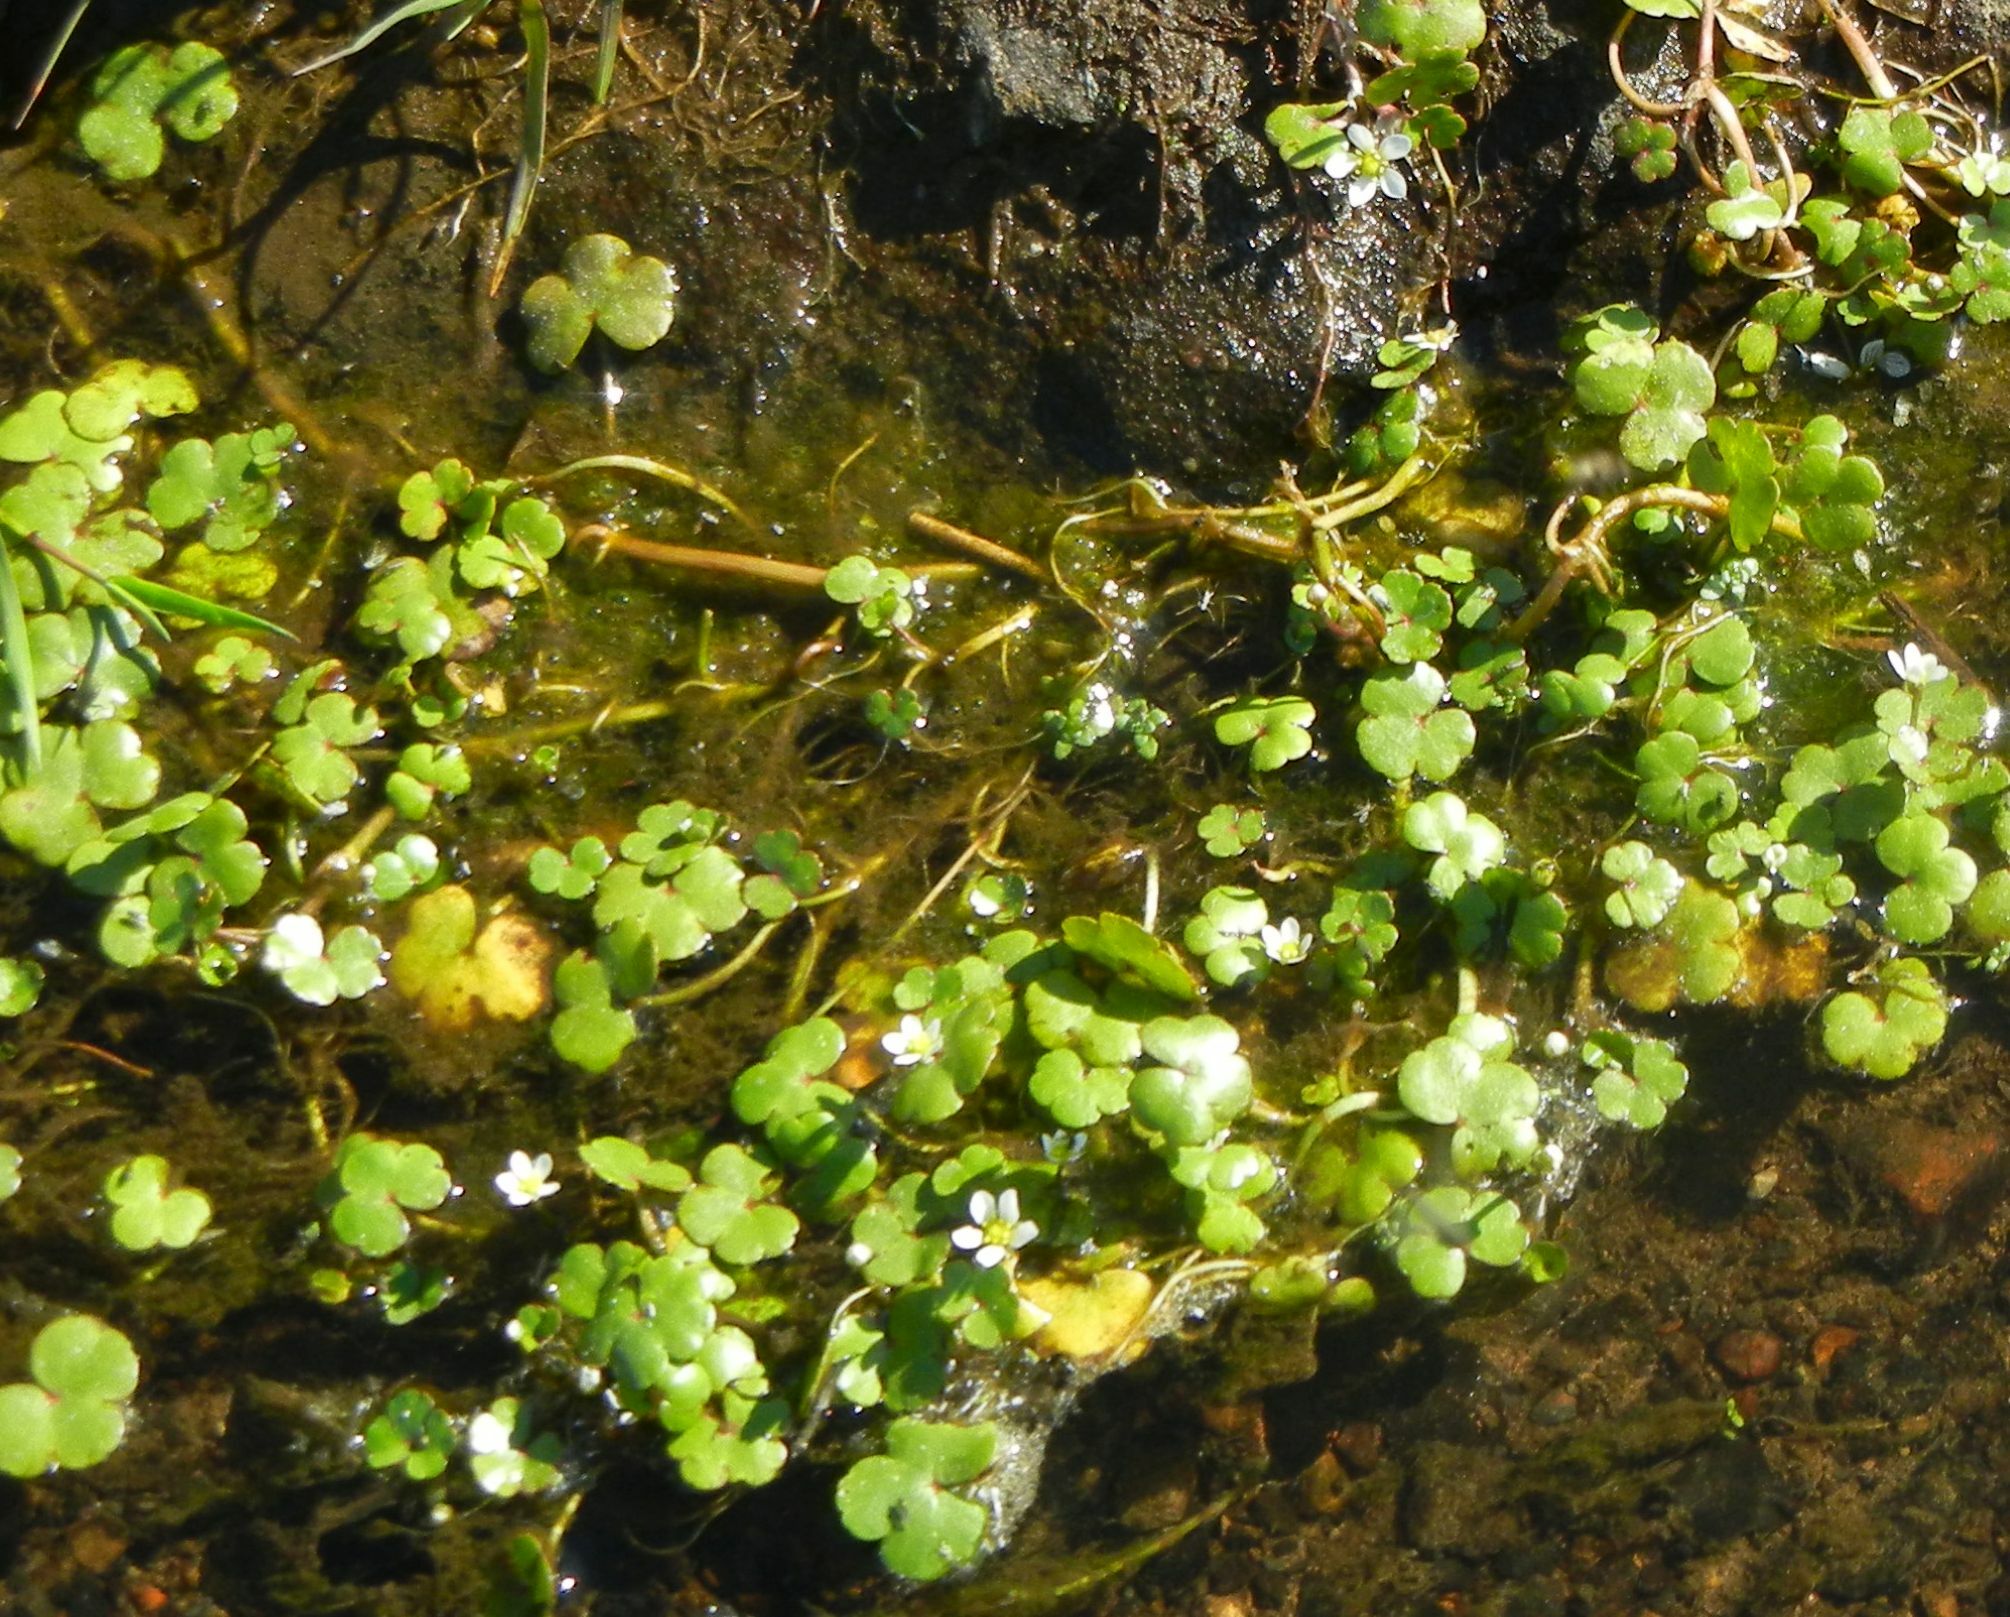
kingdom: Plantae
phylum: Tracheophyta
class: Magnoliopsida
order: Ranunculales
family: Ranunculaceae
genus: Ranunculus
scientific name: Ranunculus omiophyllus
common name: Round-leaved crowfoot
